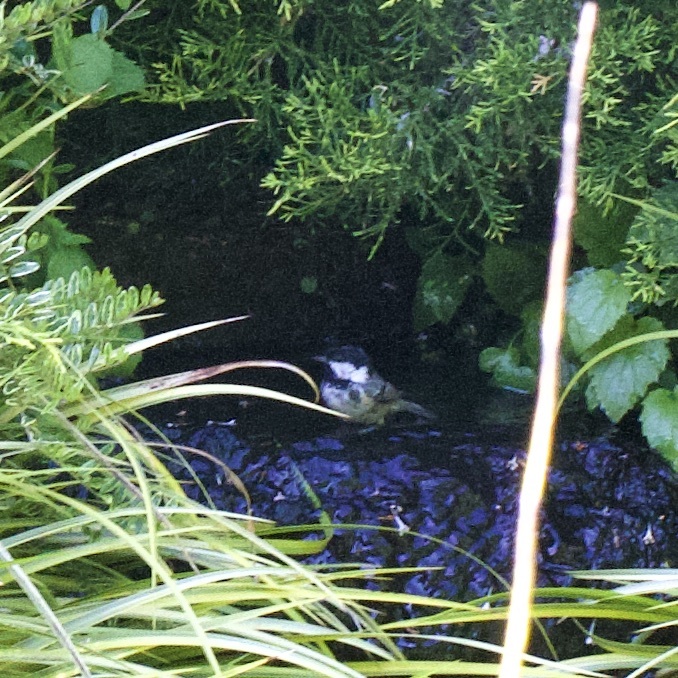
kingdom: Animalia
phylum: Chordata
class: Aves
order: Passeriformes
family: Paridae
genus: Periparus
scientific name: Periparus ater
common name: Coal tit
